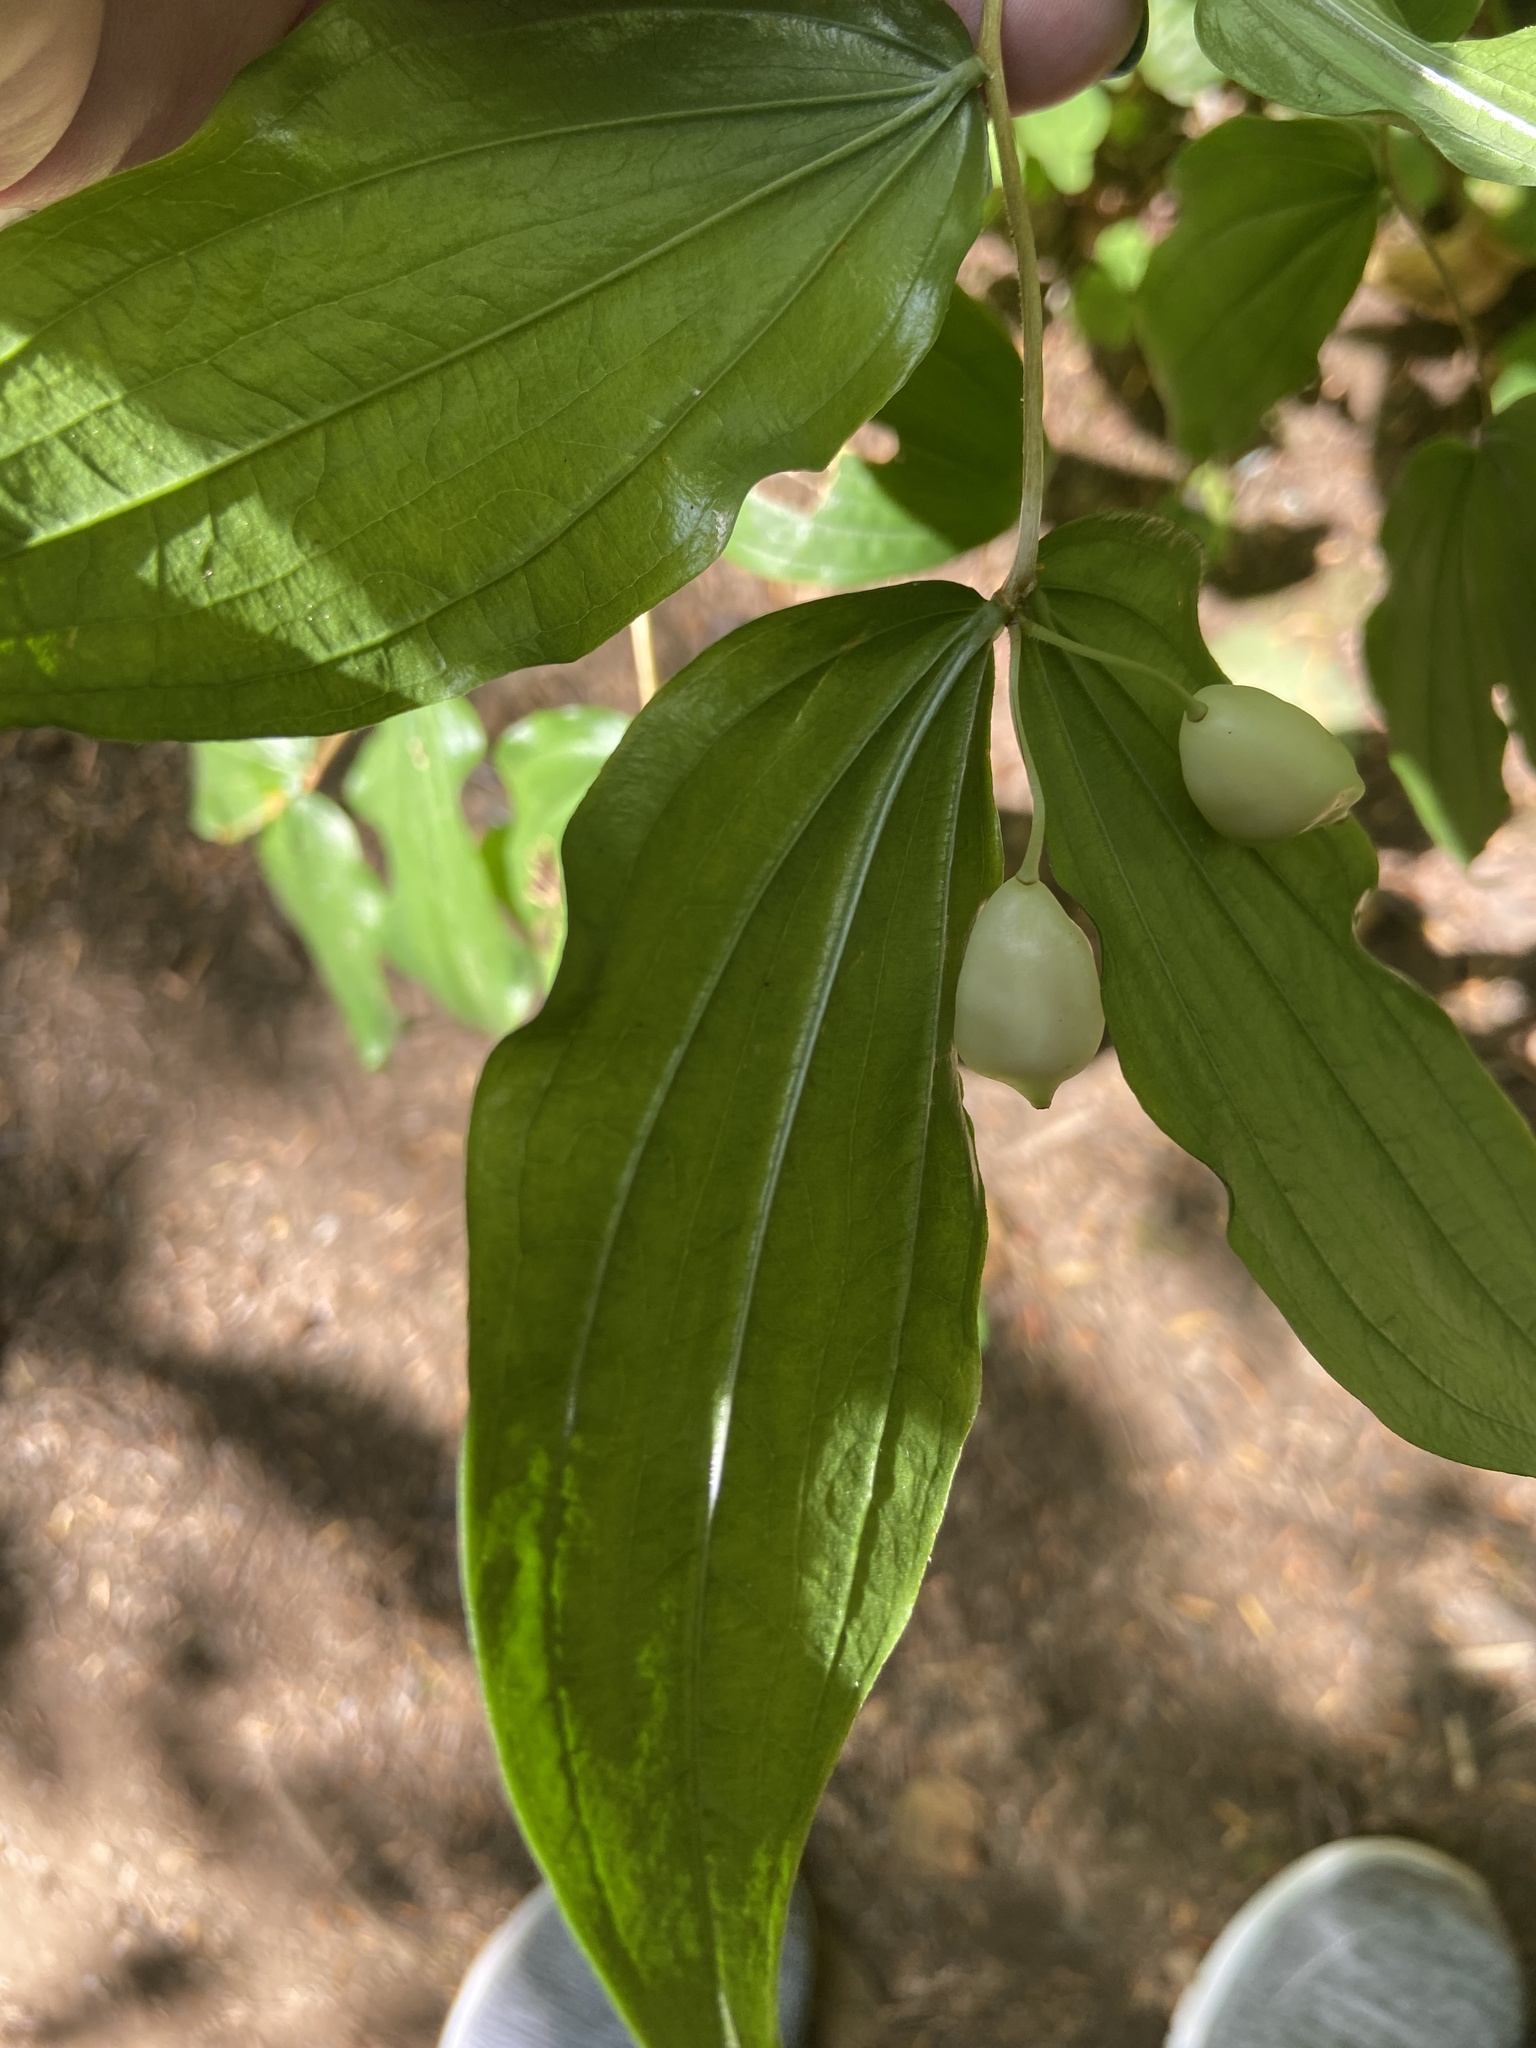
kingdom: Plantae
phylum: Tracheophyta
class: Liliopsida
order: Liliales
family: Liliaceae
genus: Prosartes
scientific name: Prosartes smithii
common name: Fairy-lantern
